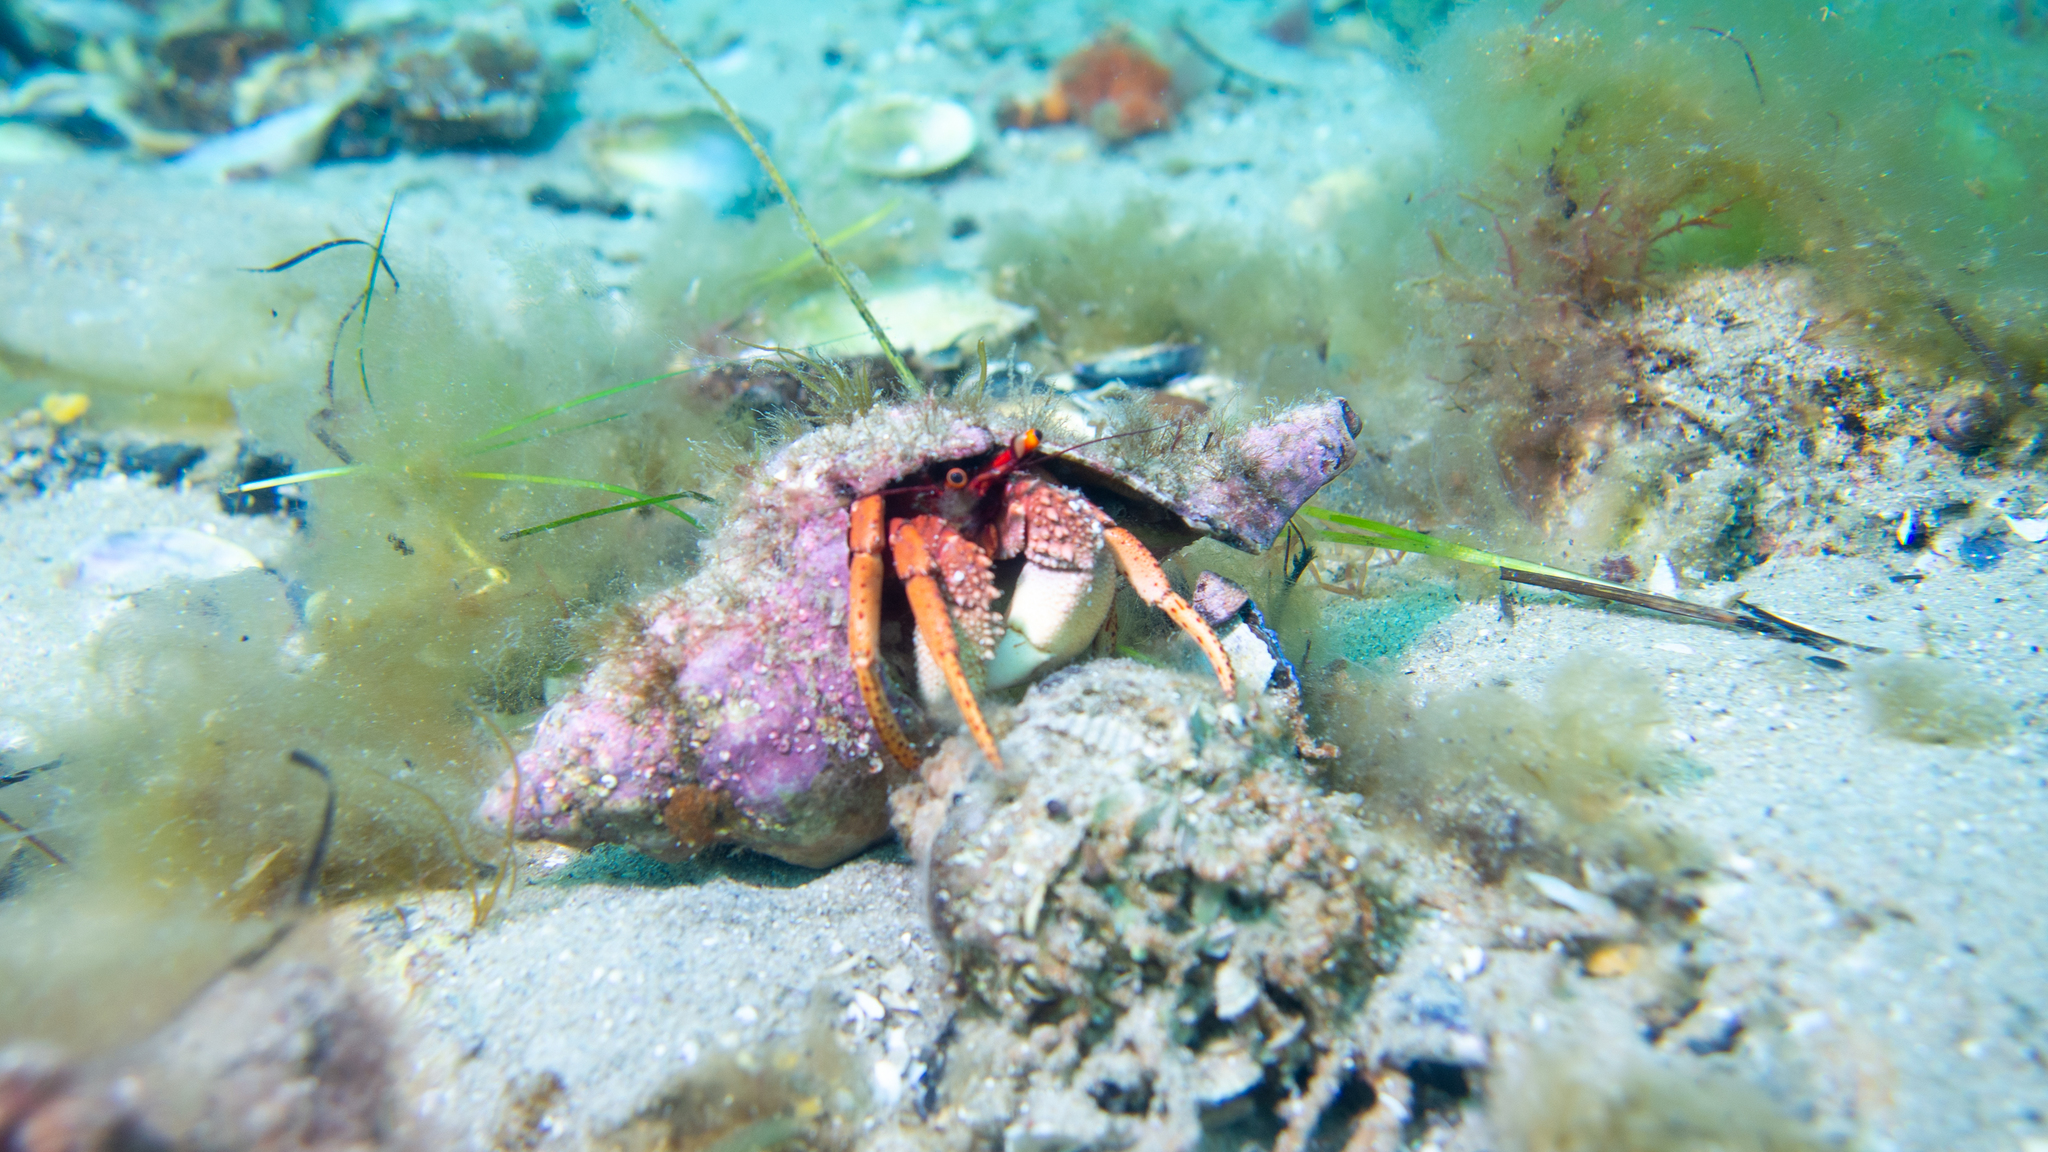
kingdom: Animalia
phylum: Arthropoda
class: Malacostraca
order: Decapoda
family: Diogenidae
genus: Paguristes
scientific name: Paguristes frontalis
